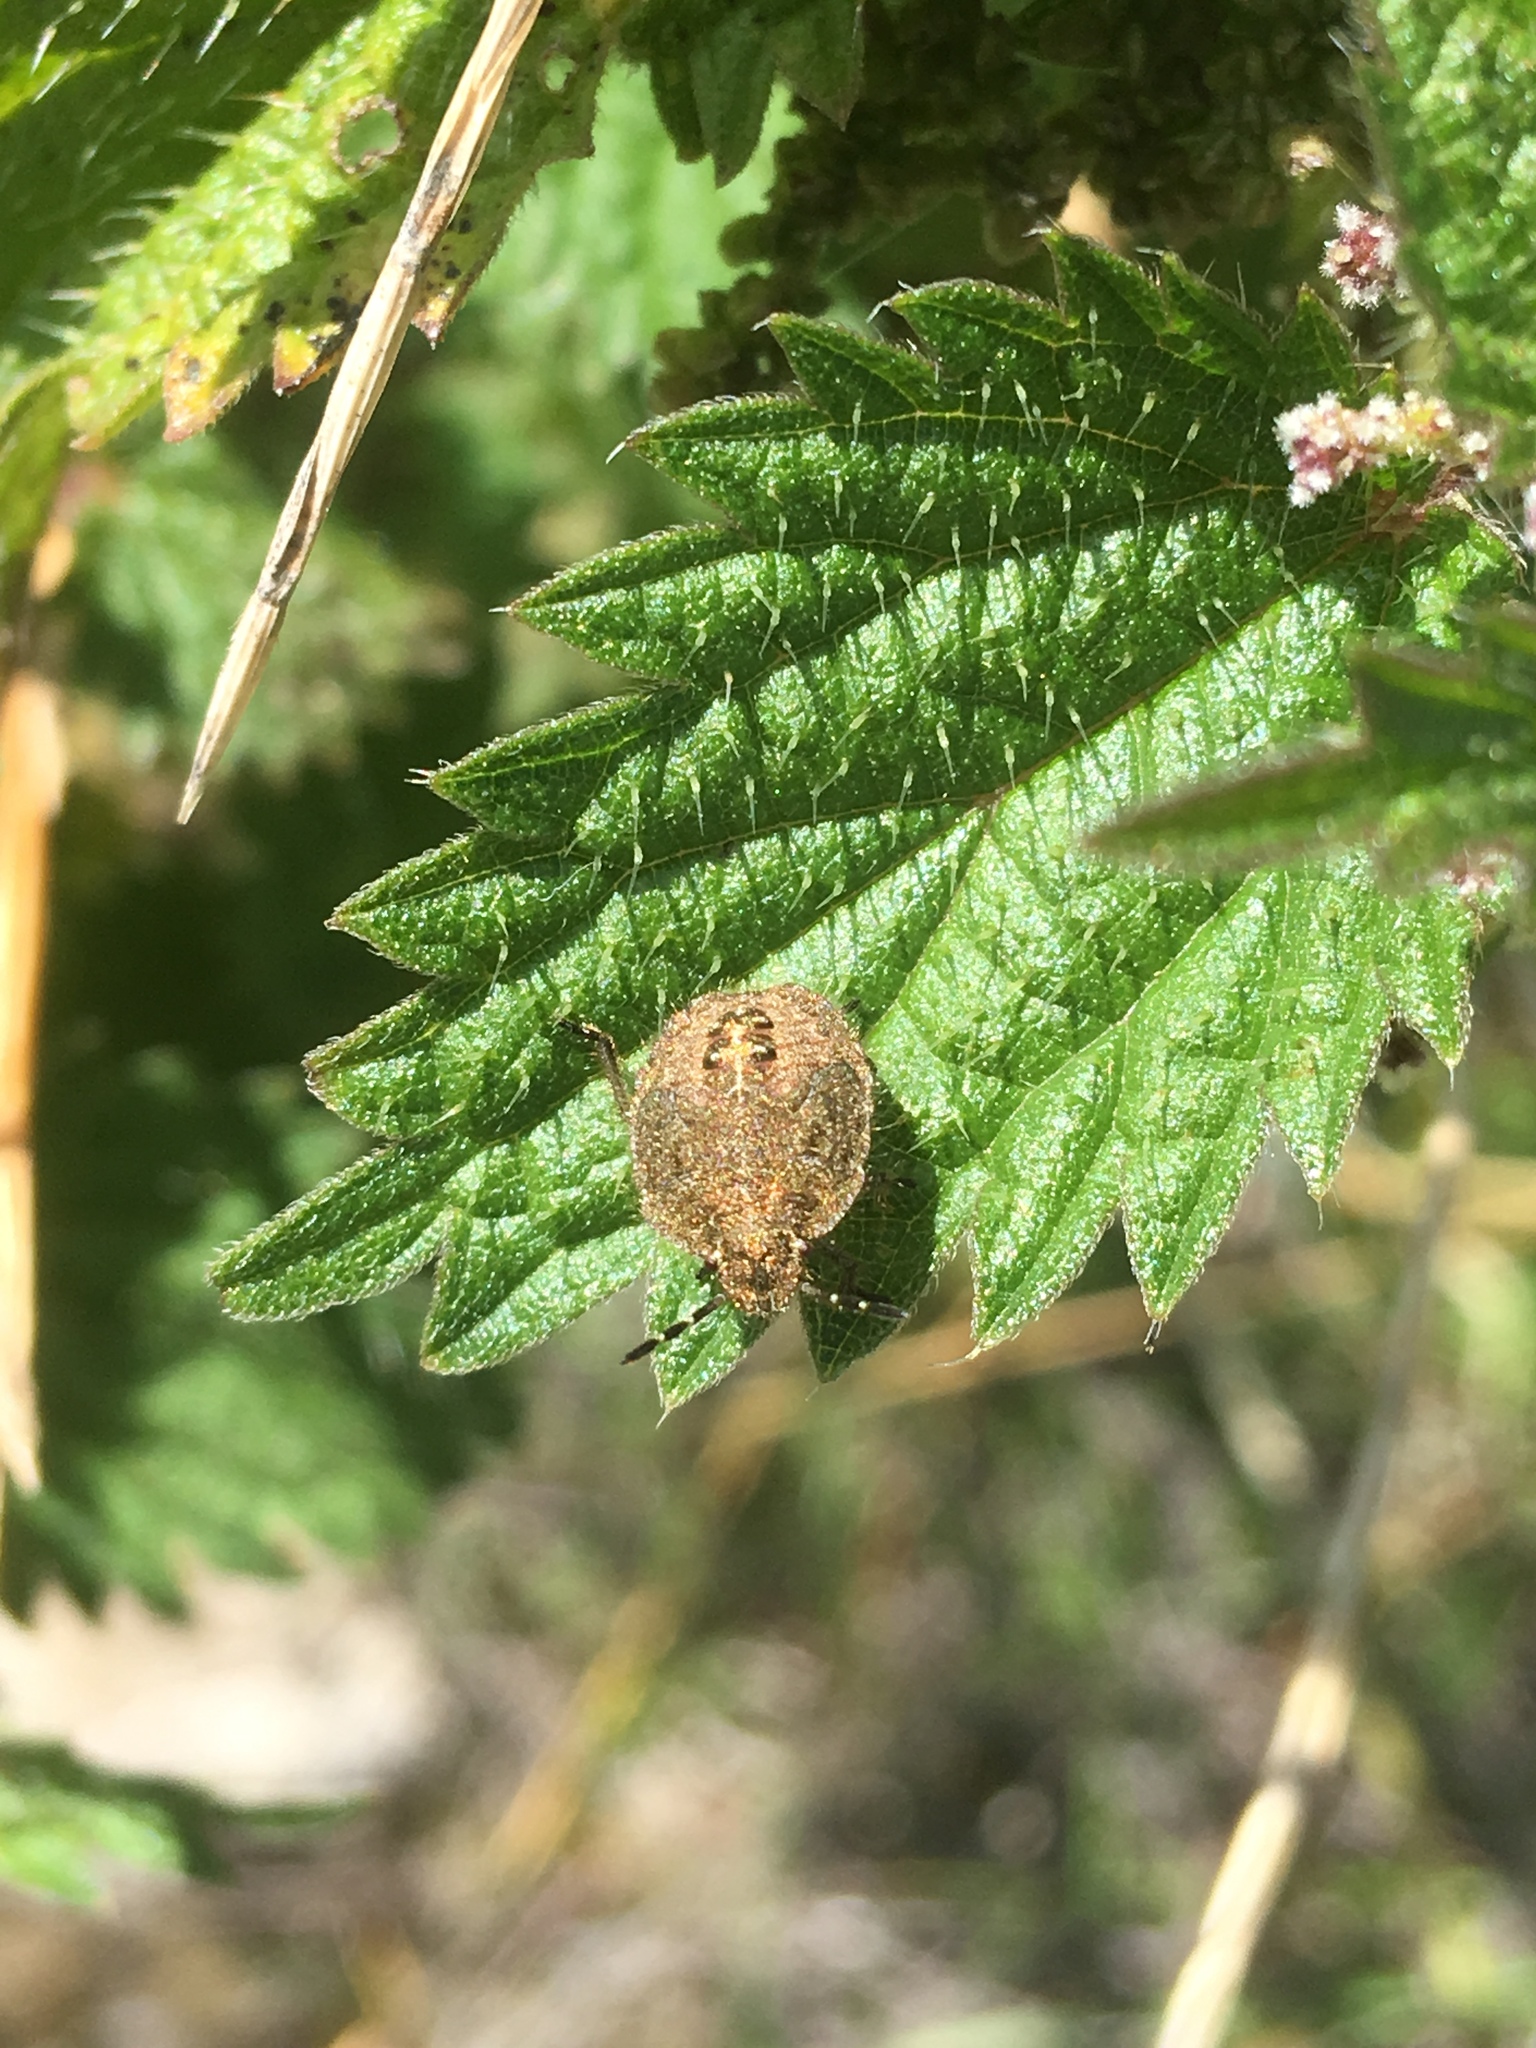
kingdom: Animalia
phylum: Arthropoda
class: Insecta
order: Hemiptera
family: Pentatomidae
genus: Dolycoris
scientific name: Dolycoris baccarum
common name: Sloe bug
